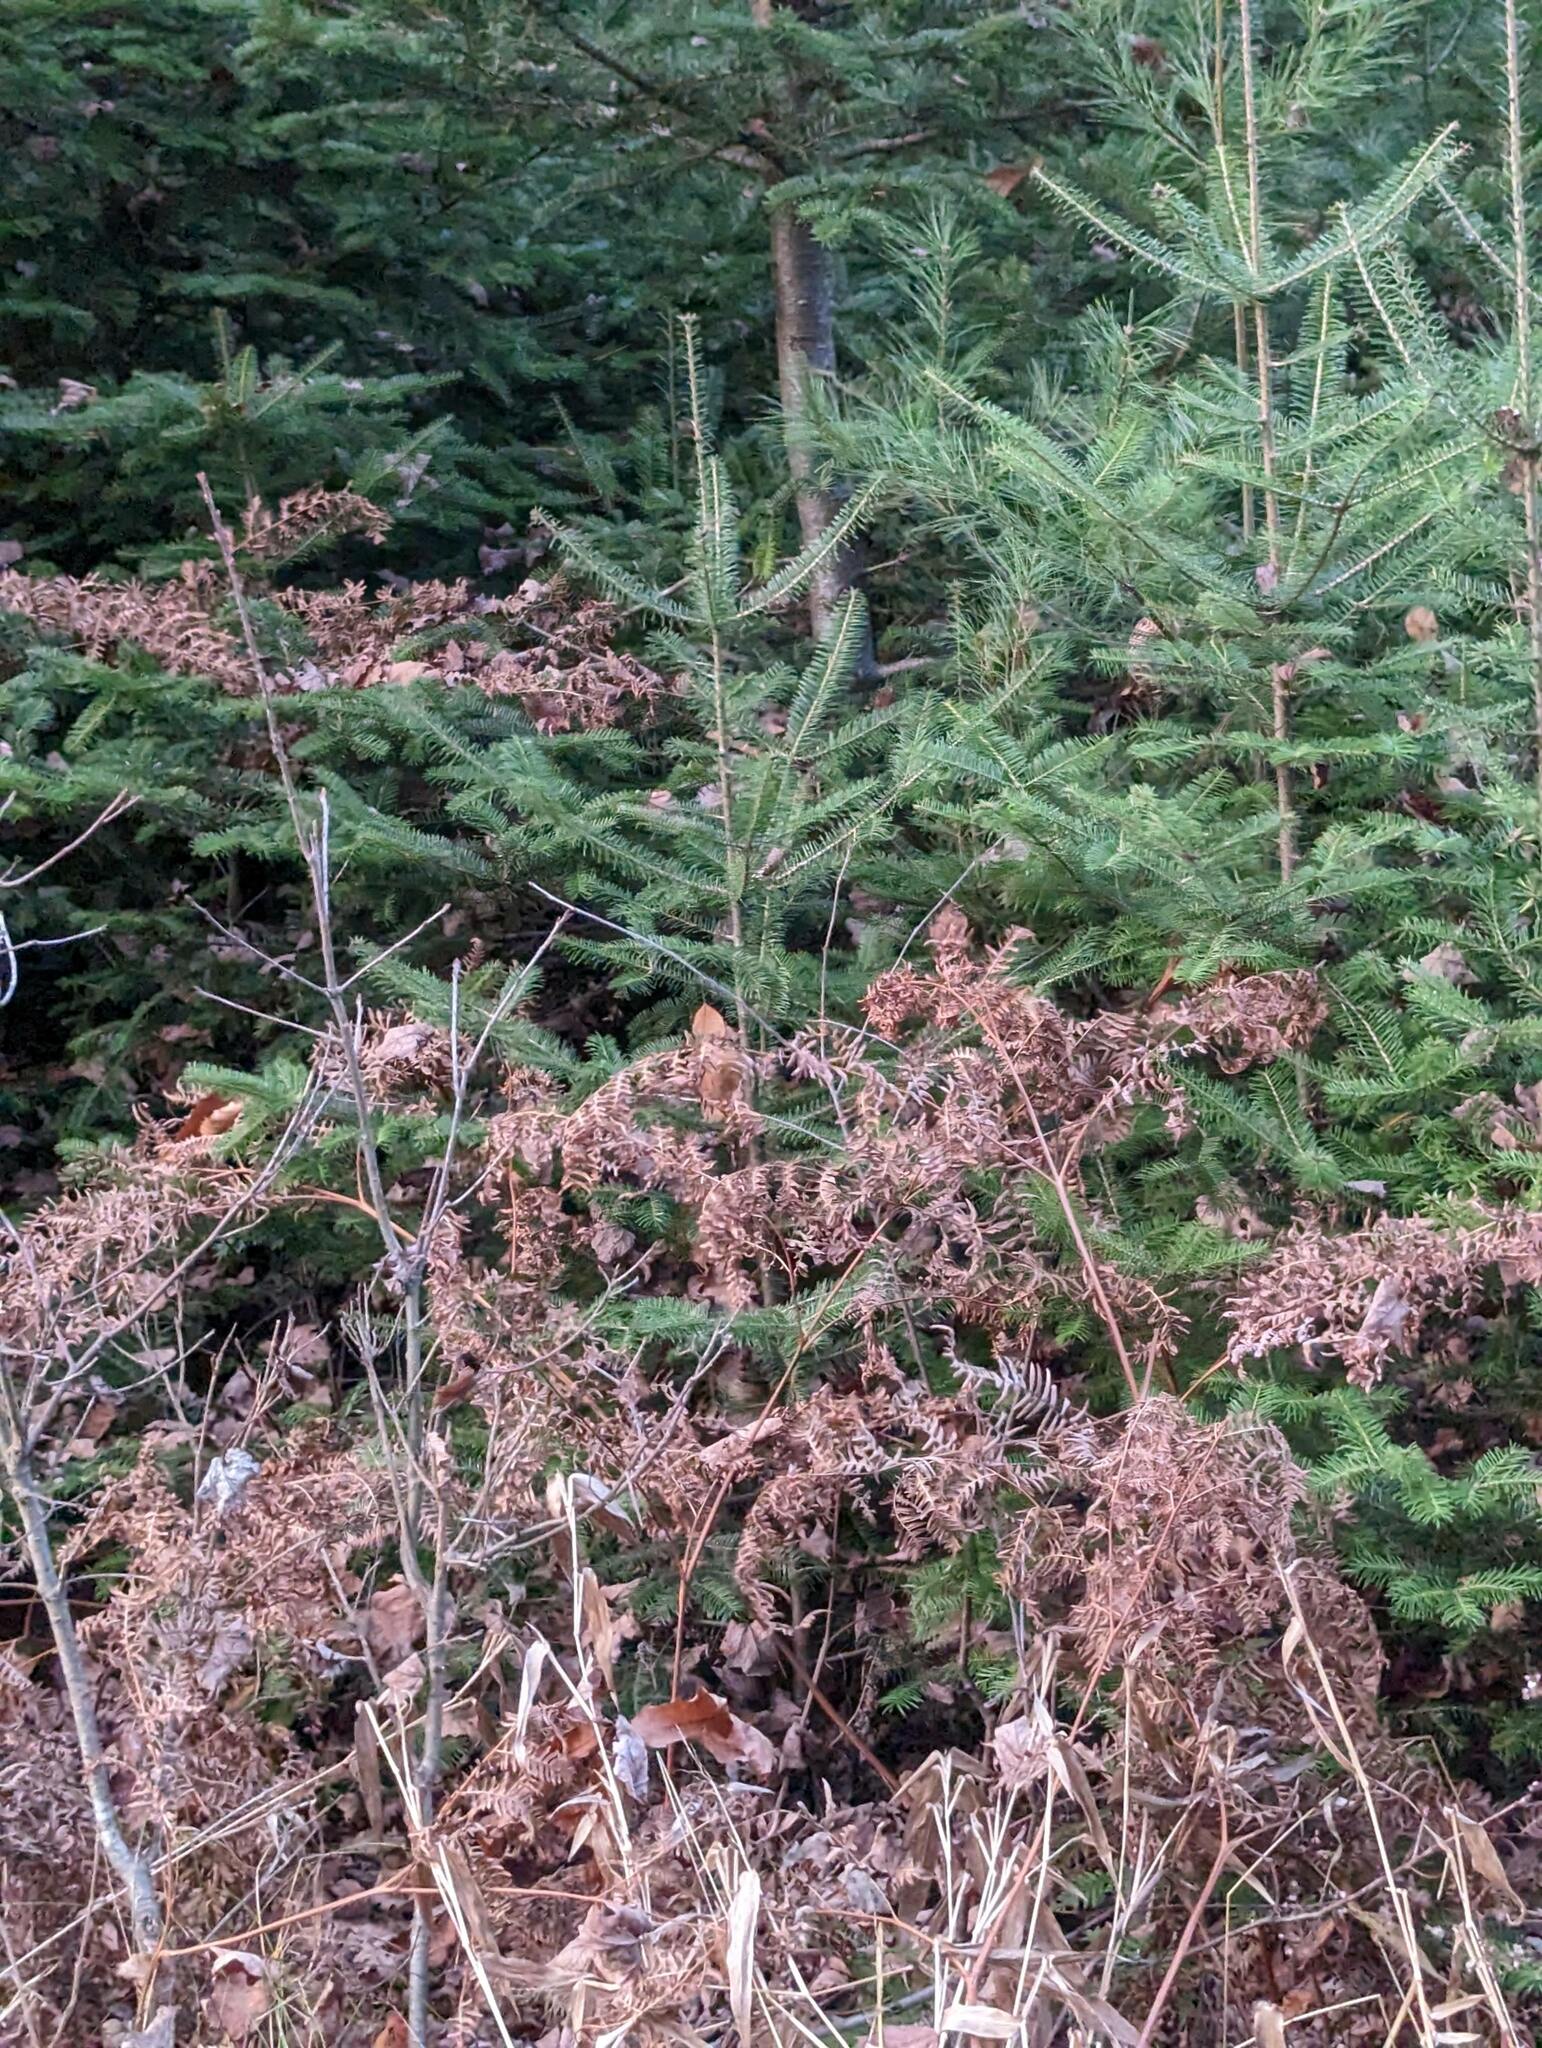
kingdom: Plantae
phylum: Tracheophyta
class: Polypodiopsida
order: Polypodiales
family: Dennstaedtiaceae
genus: Pteridium
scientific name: Pteridium aquilinum
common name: Bracken
